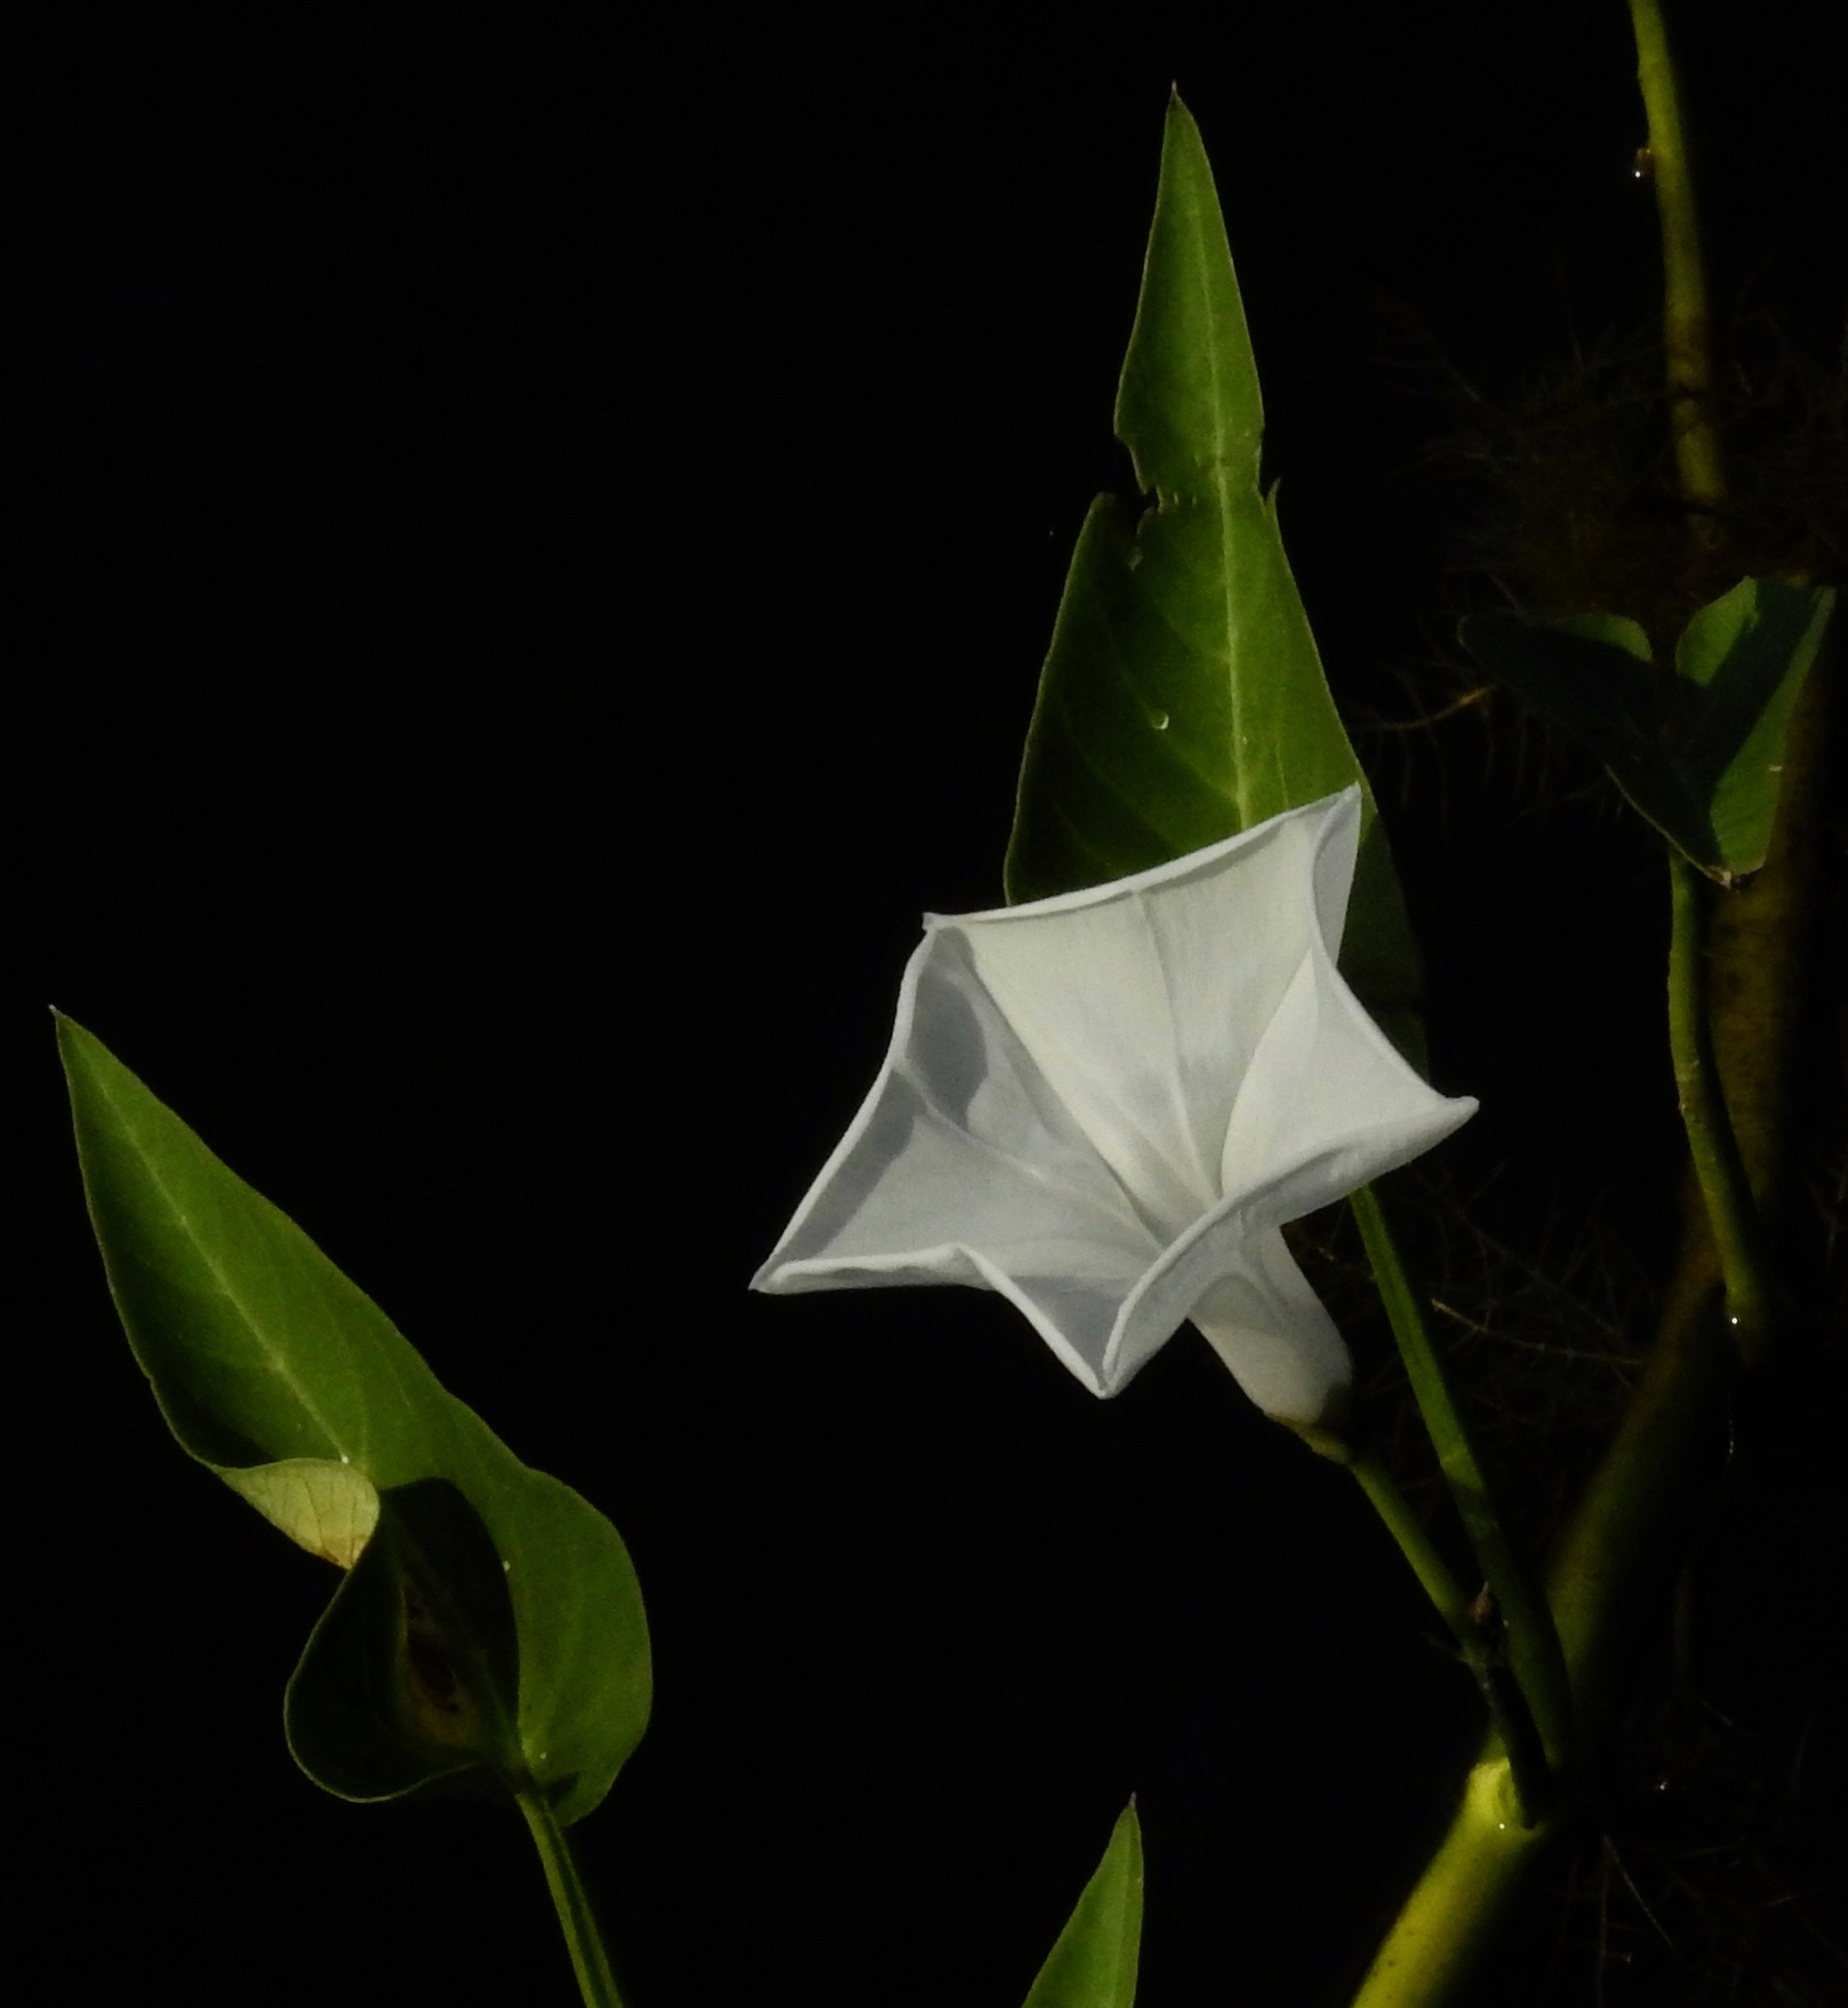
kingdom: Plantae
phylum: Tracheophyta
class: Magnoliopsida
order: Solanales
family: Convolvulaceae
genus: Ipomoea
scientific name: Ipomoea aquatica
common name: Swamp morning-glory
